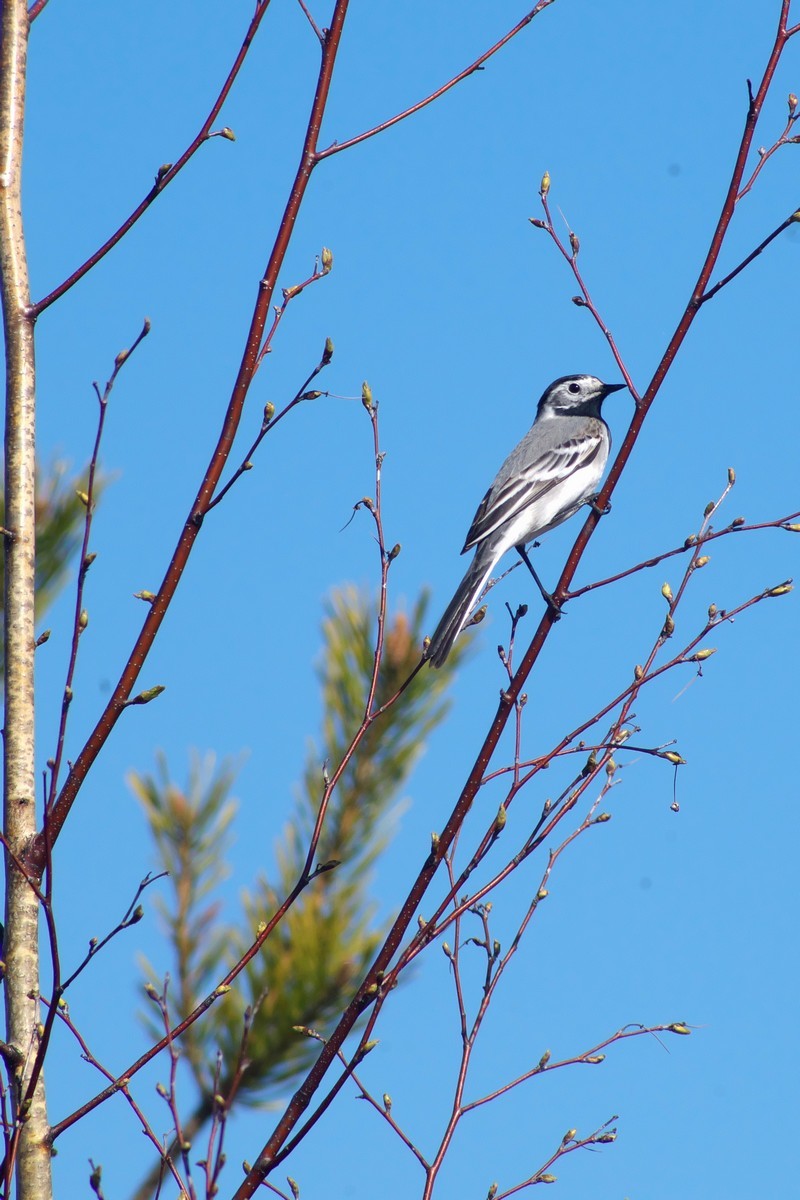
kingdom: Animalia
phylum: Chordata
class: Aves
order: Passeriformes
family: Motacillidae
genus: Motacilla
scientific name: Motacilla alba
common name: White wagtail
